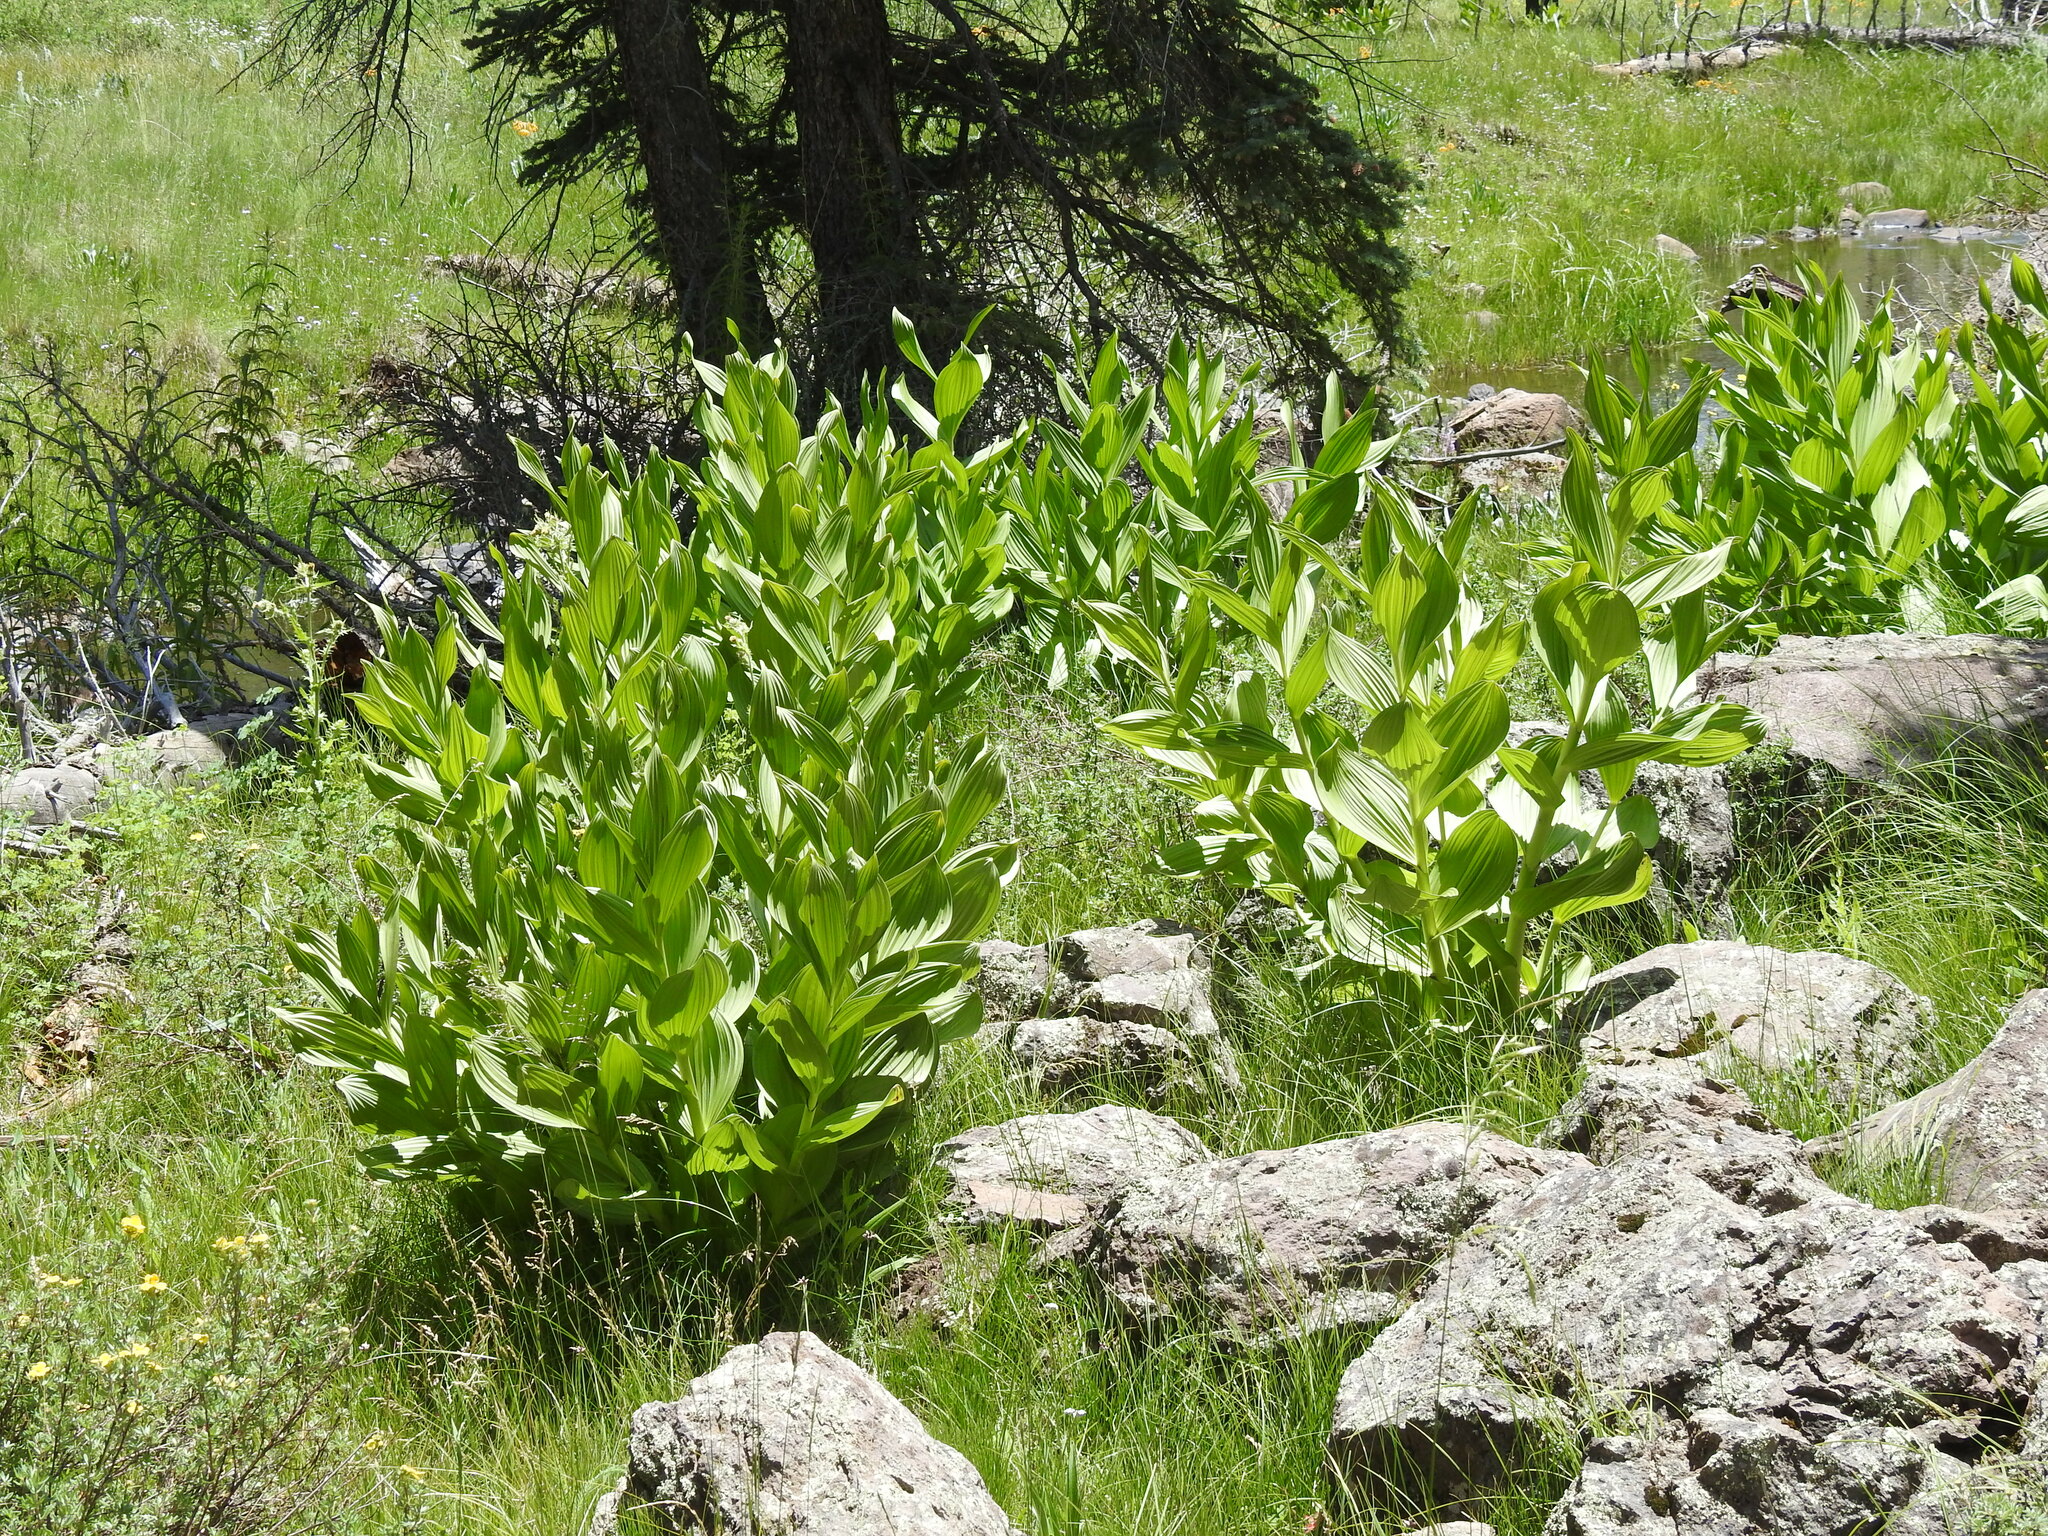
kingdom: Plantae
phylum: Tracheophyta
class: Liliopsida
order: Liliales
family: Melanthiaceae
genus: Veratrum
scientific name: Veratrum californicum
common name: California veratrum
